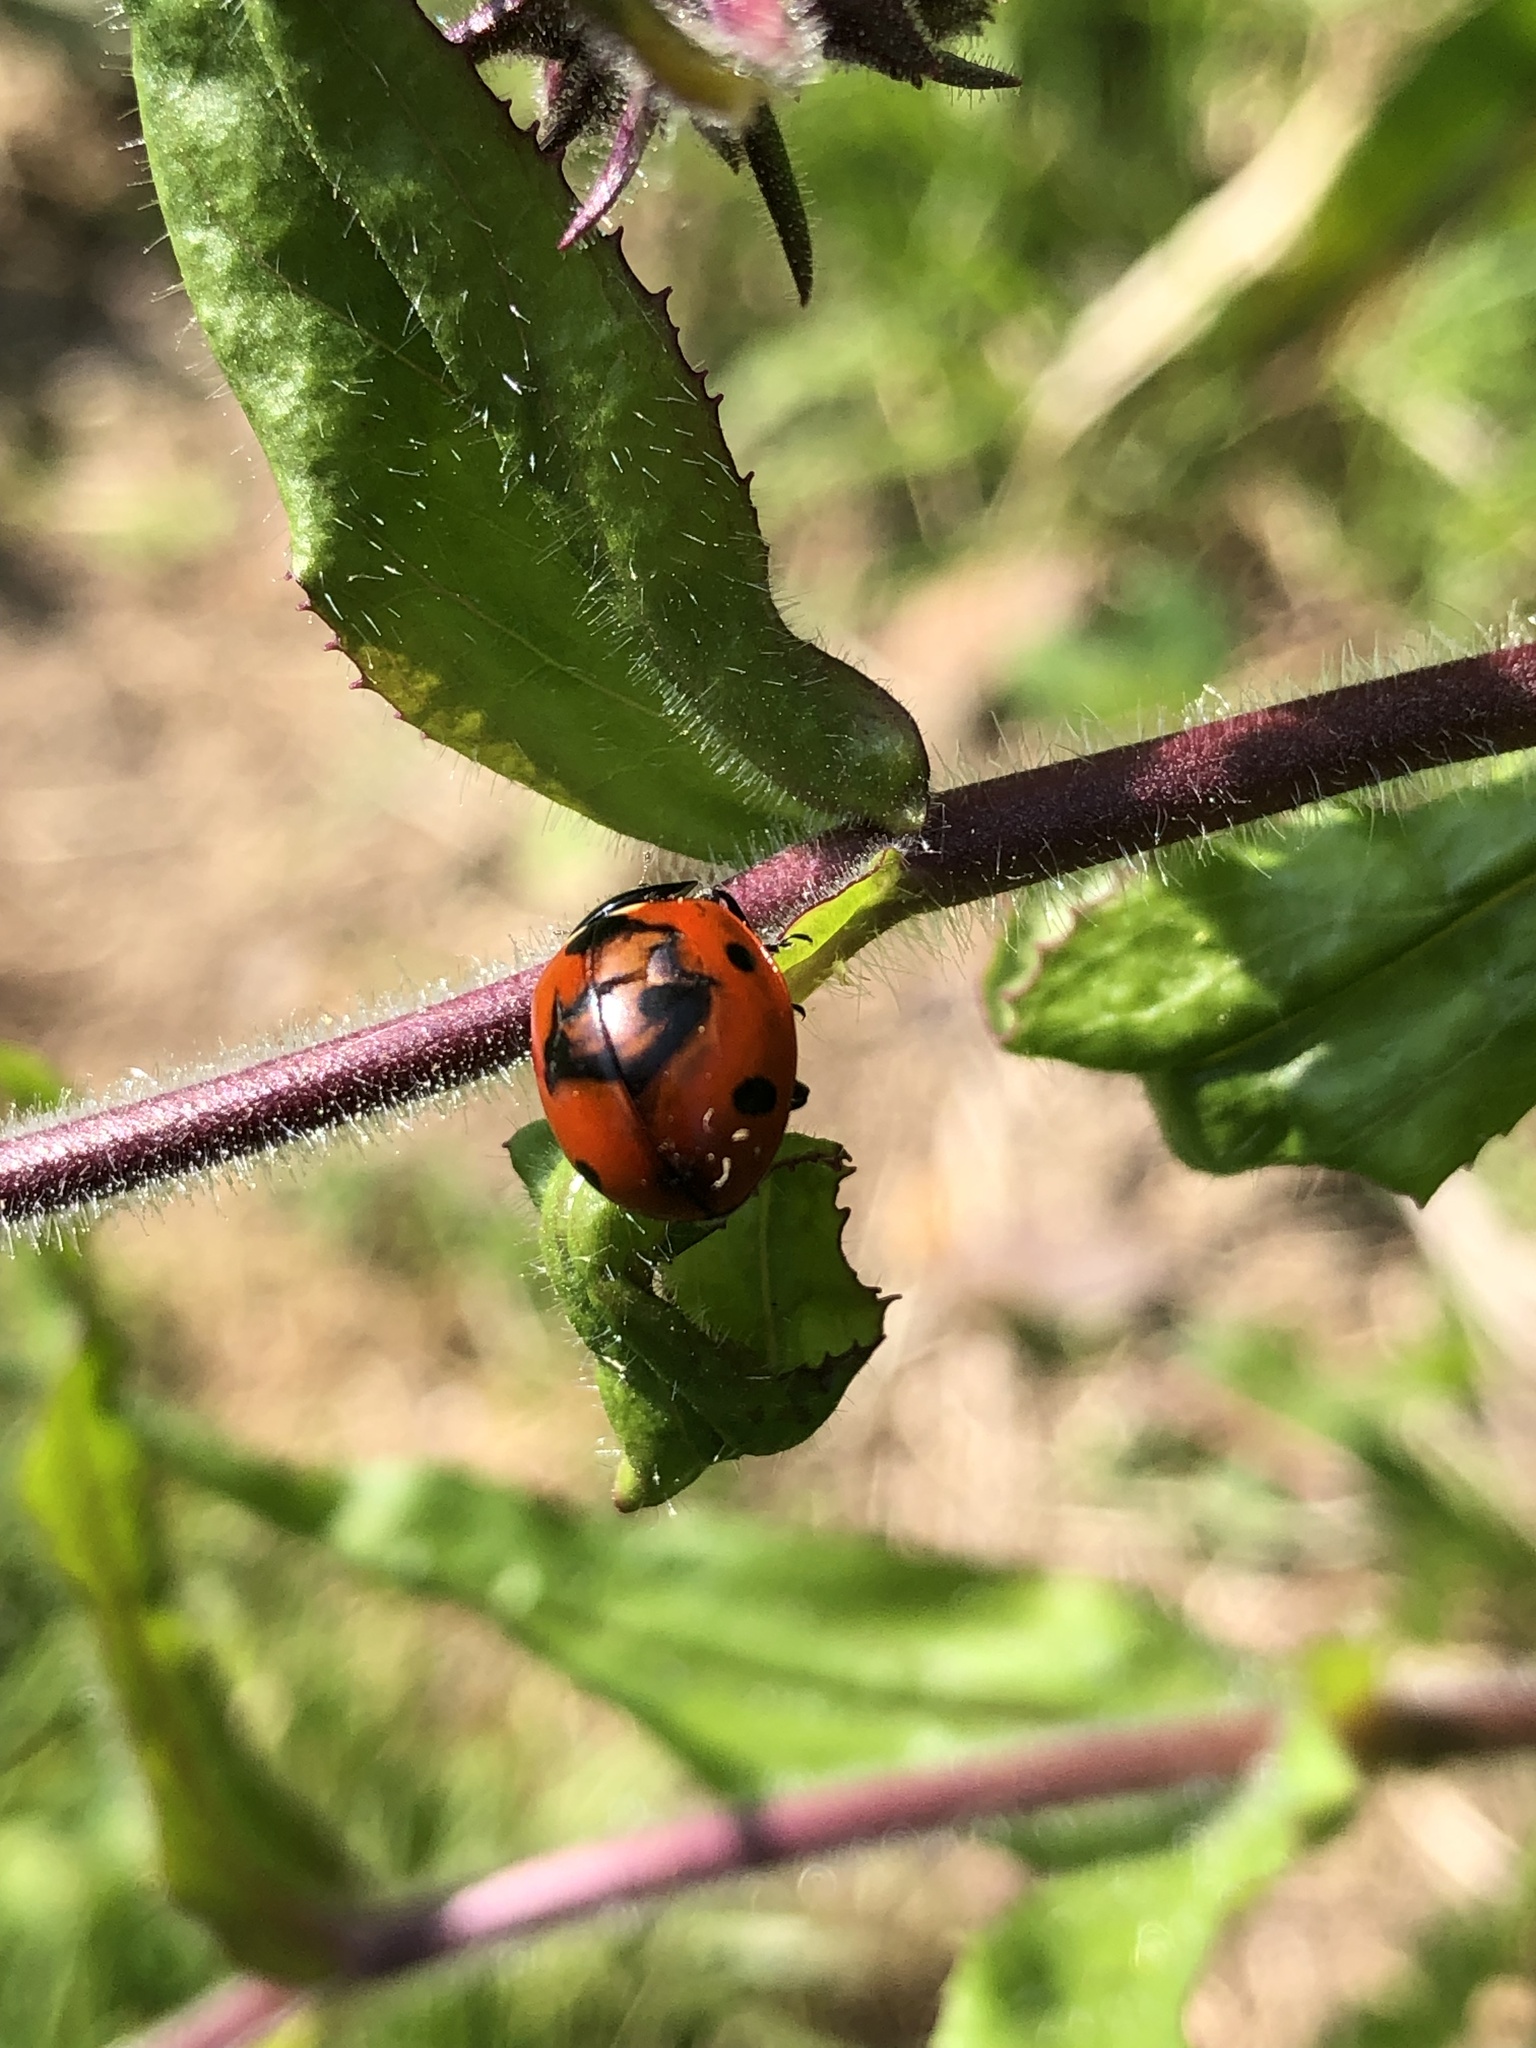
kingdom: Animalia
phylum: Arthropoda
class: Insecta
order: Coleoptera
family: Coccinellidae
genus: Coccinella
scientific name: Coccinella septempunctata
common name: Sevenspotted lady beetle
